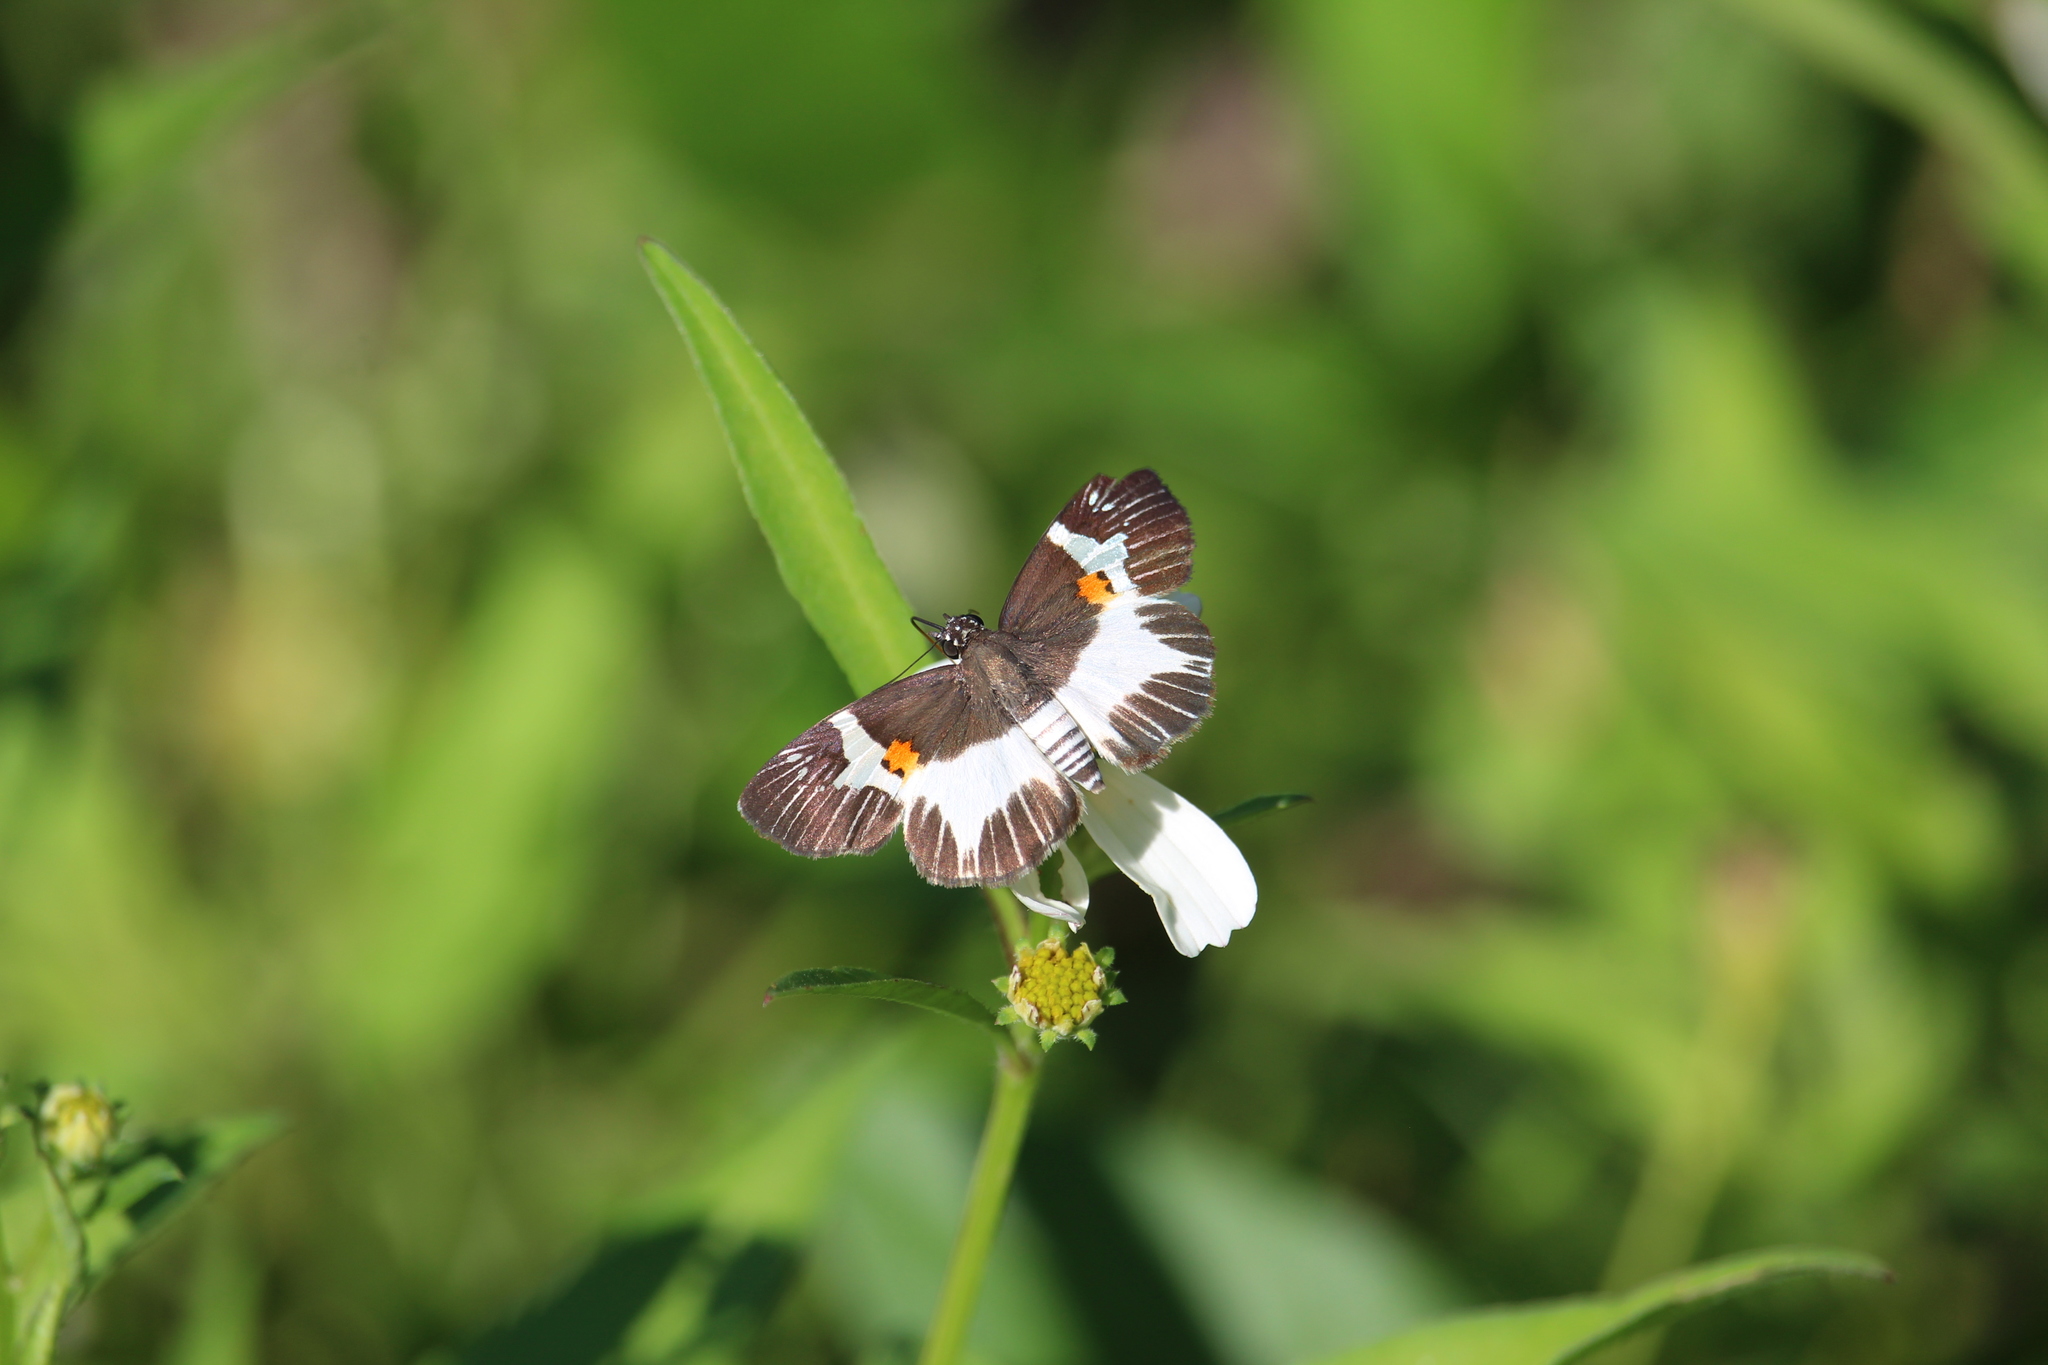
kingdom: Animalia
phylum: Arthropoda
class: Insecta
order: Lepidoptera
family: Hesperiidae
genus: Atarnes
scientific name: Atarnes sallei
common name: Orange-spotted skipper
